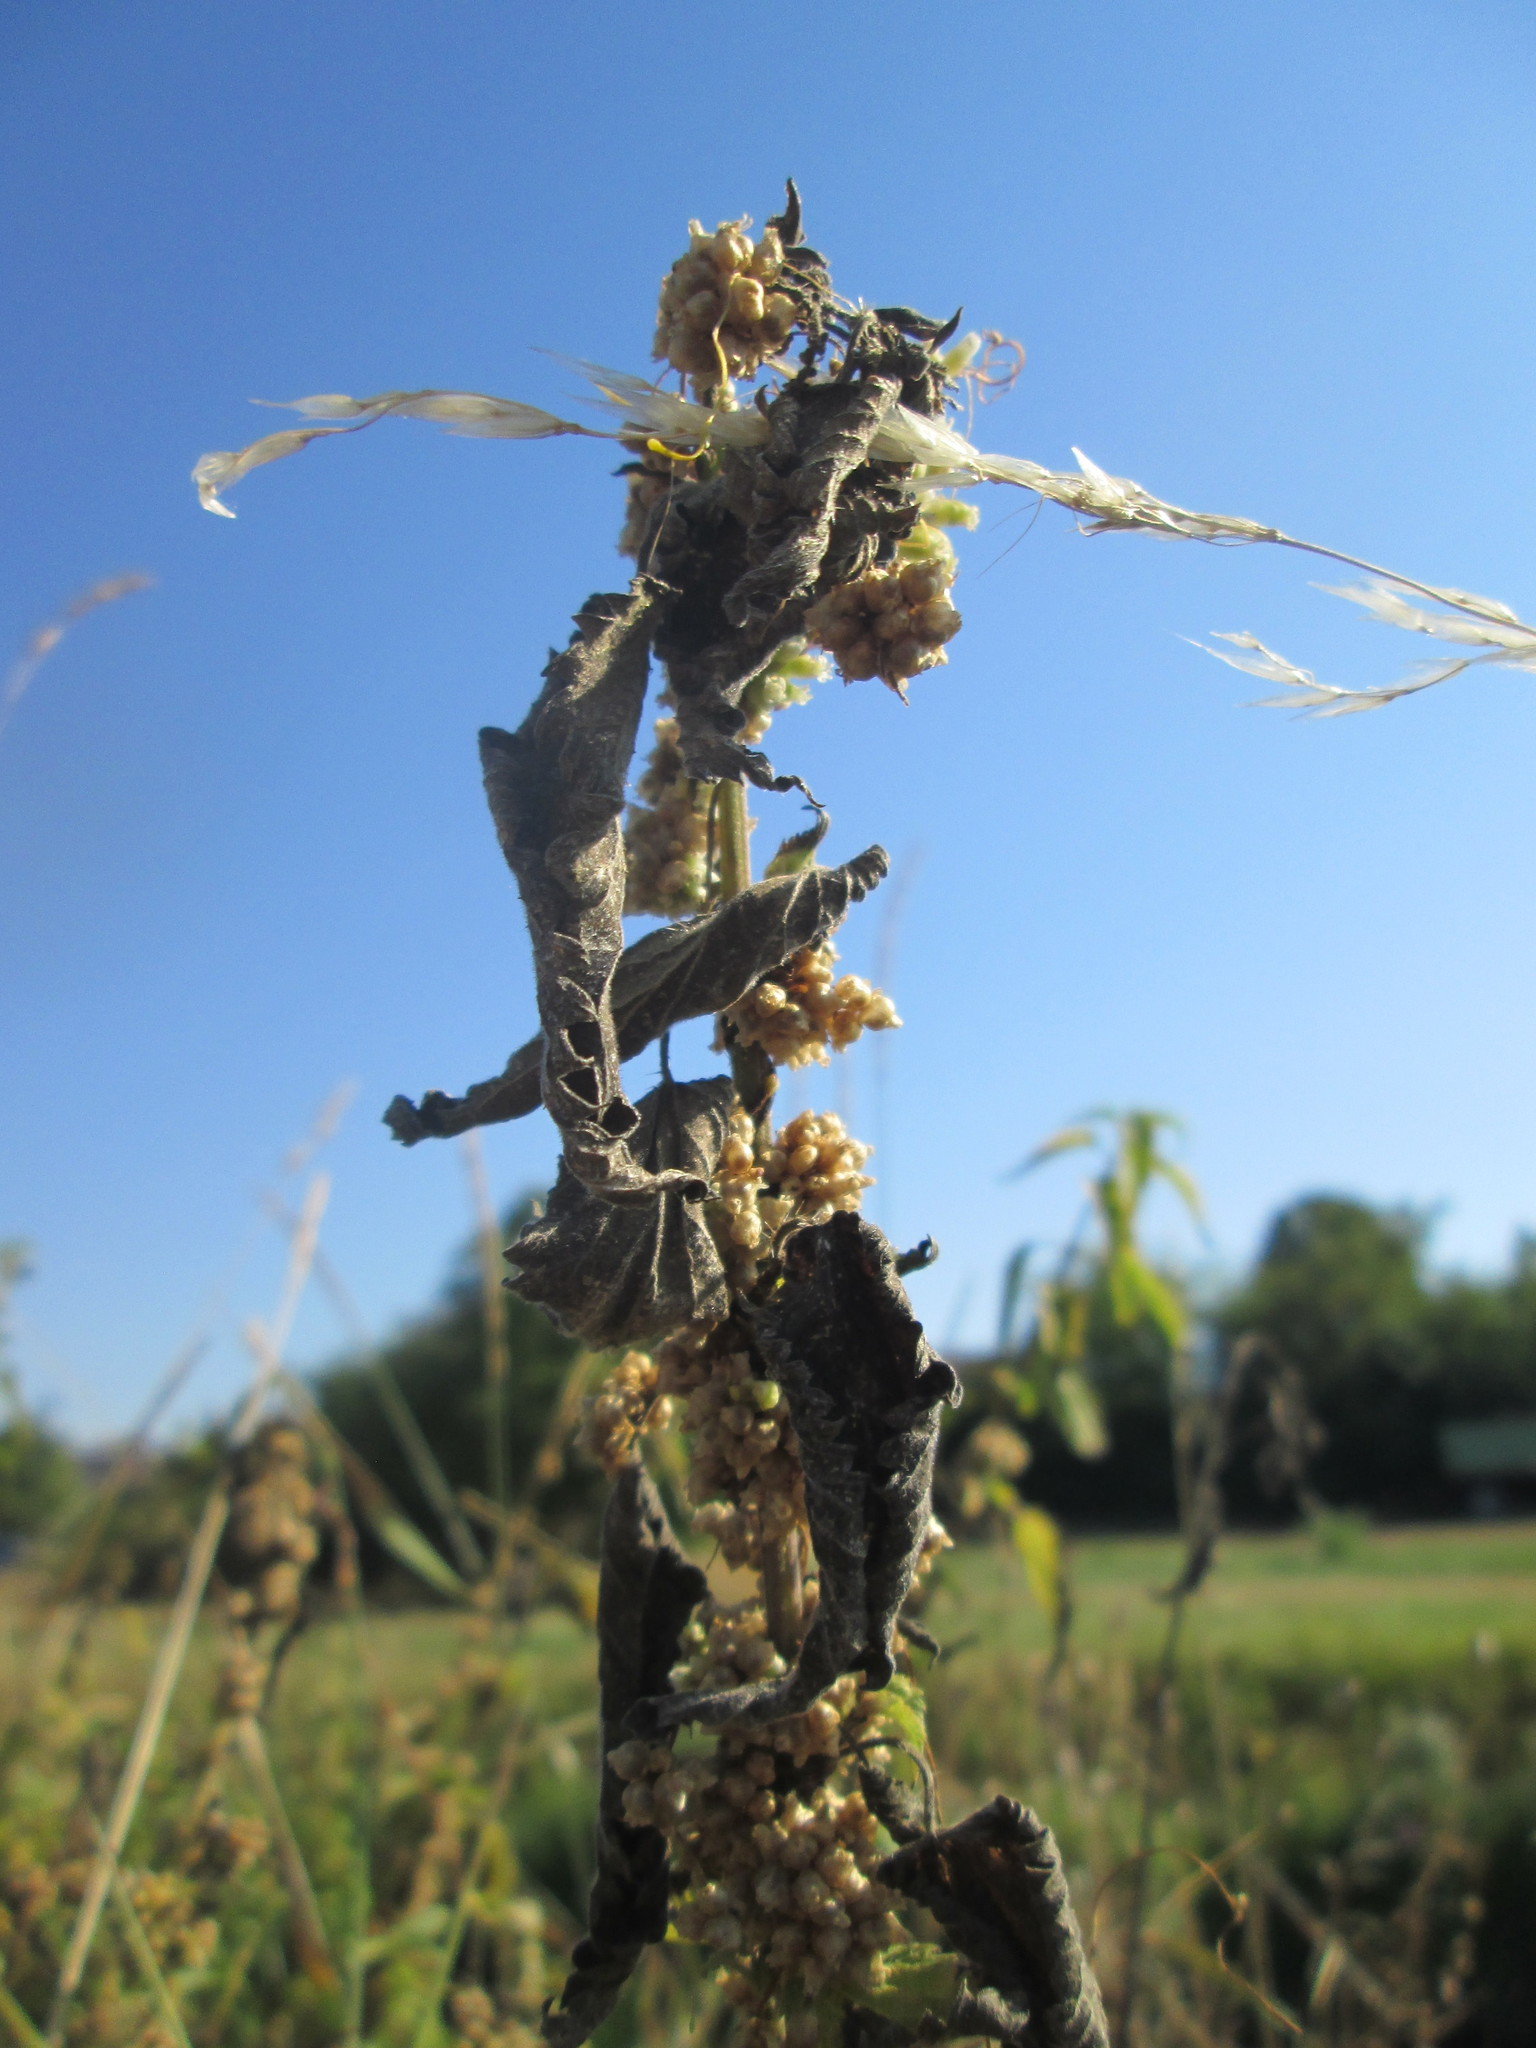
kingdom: Plantae
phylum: Tracheophyta
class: Magnoliopsida
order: Solanales
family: Convolvulaceae
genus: Cuscuta
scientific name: Cuscuta europaea
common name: Greater dodder
